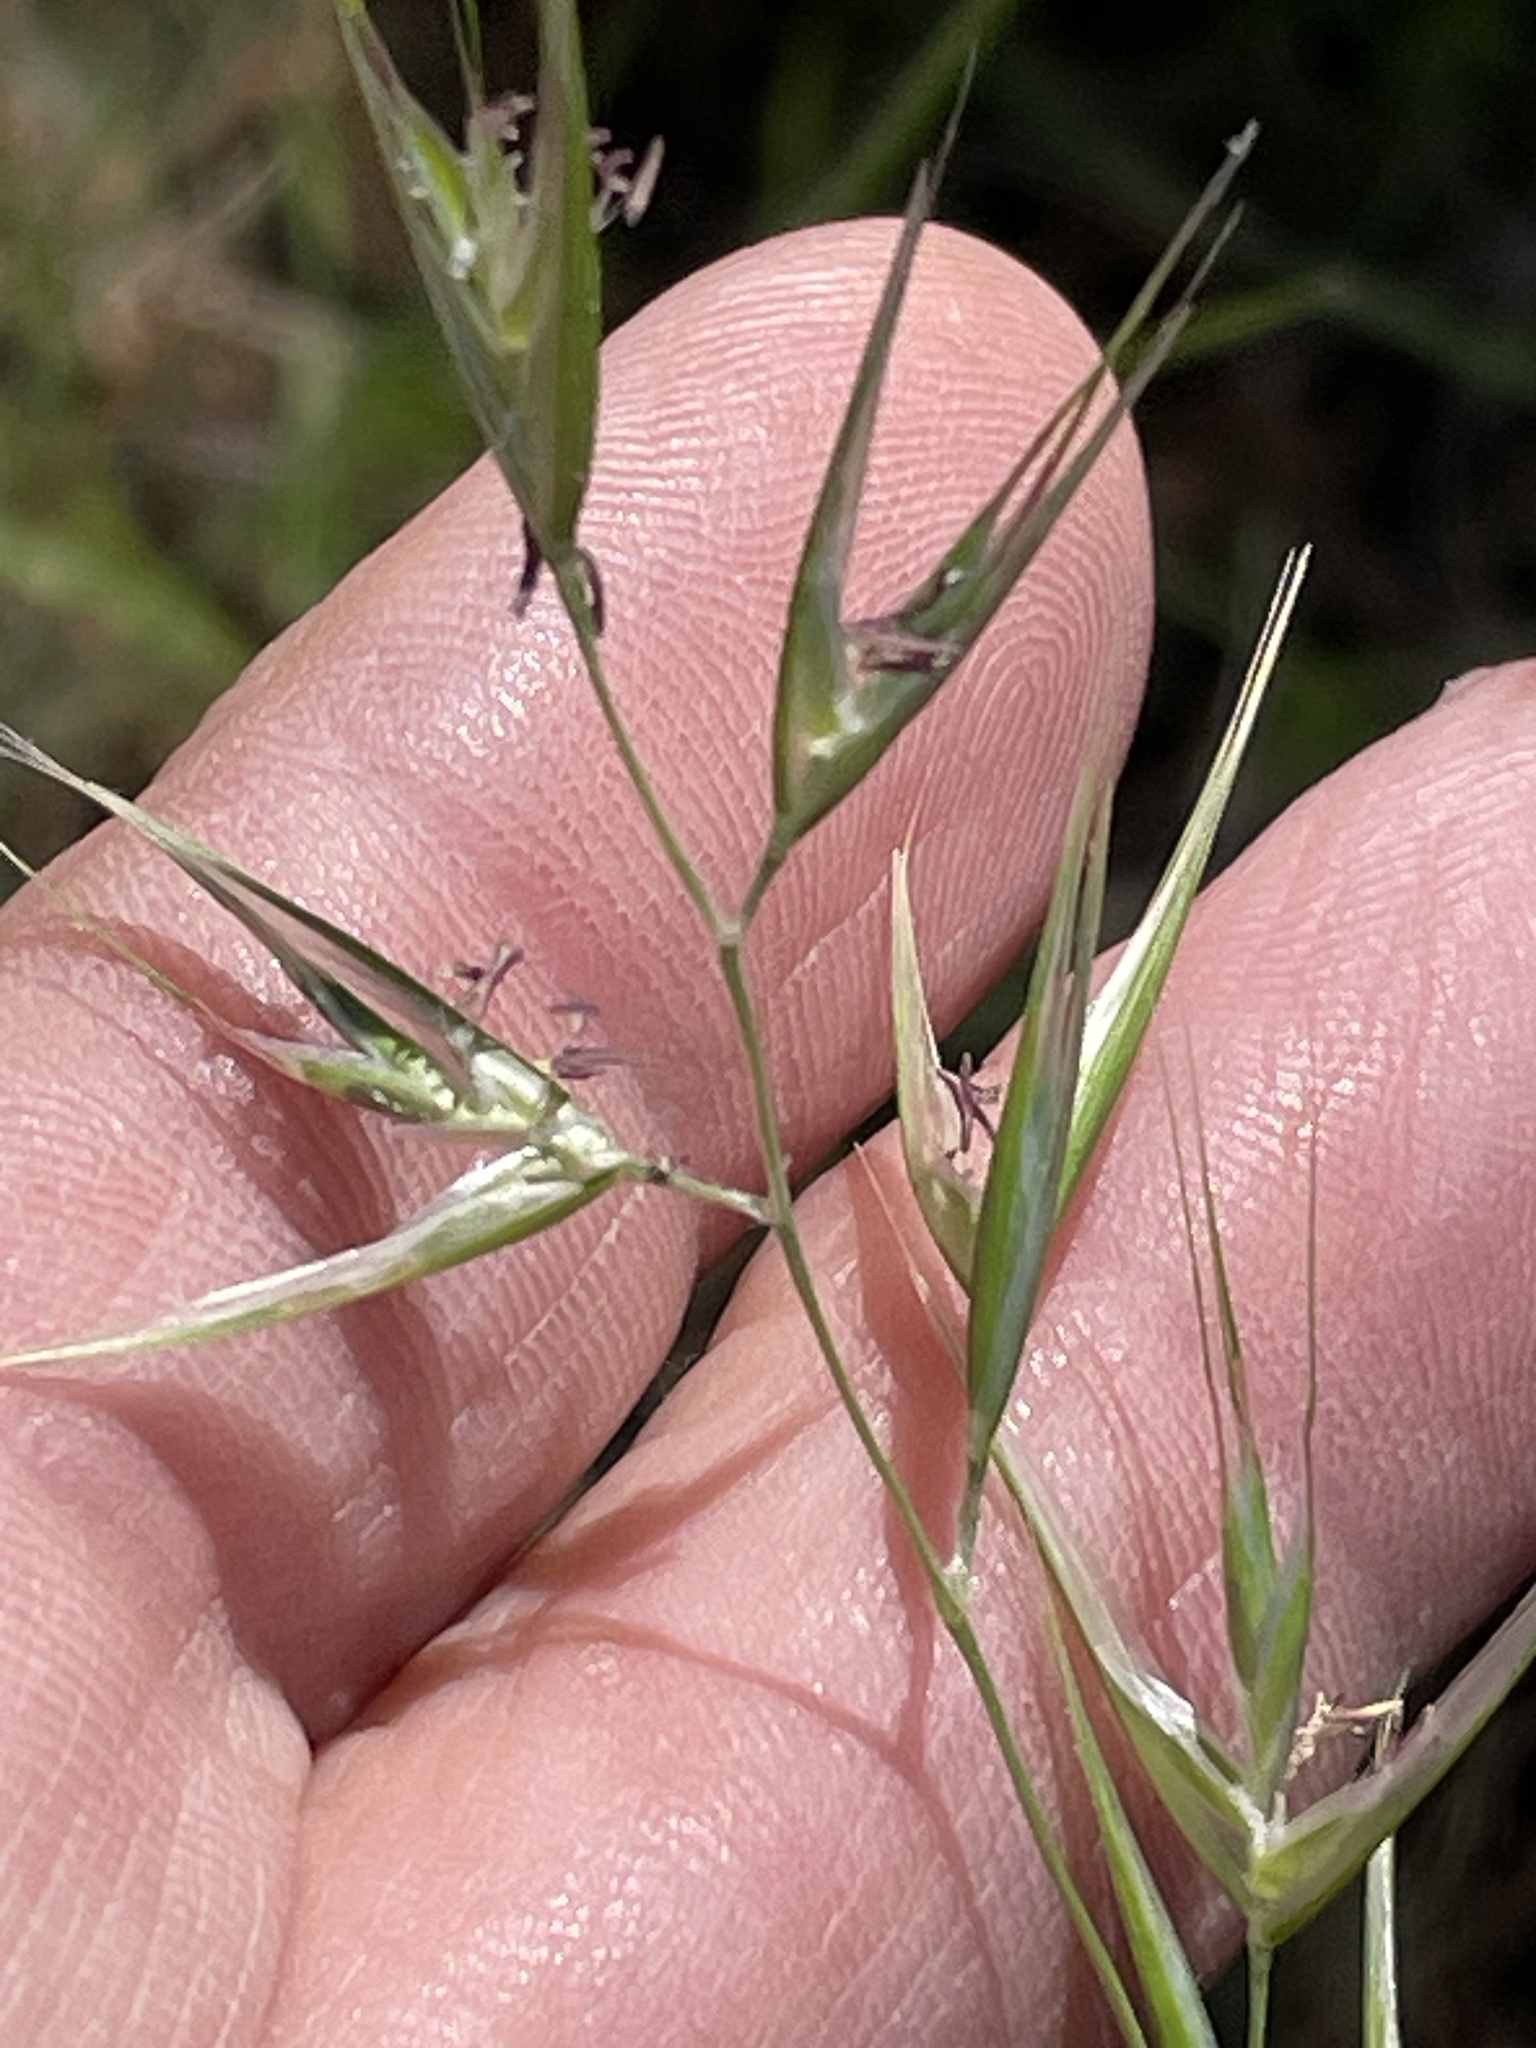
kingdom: Plantae
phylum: Tracheophyta
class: Liliopsida
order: Poales
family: Poaceae
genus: Danthonia
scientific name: Danthonia sericea
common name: Downy danthonia
